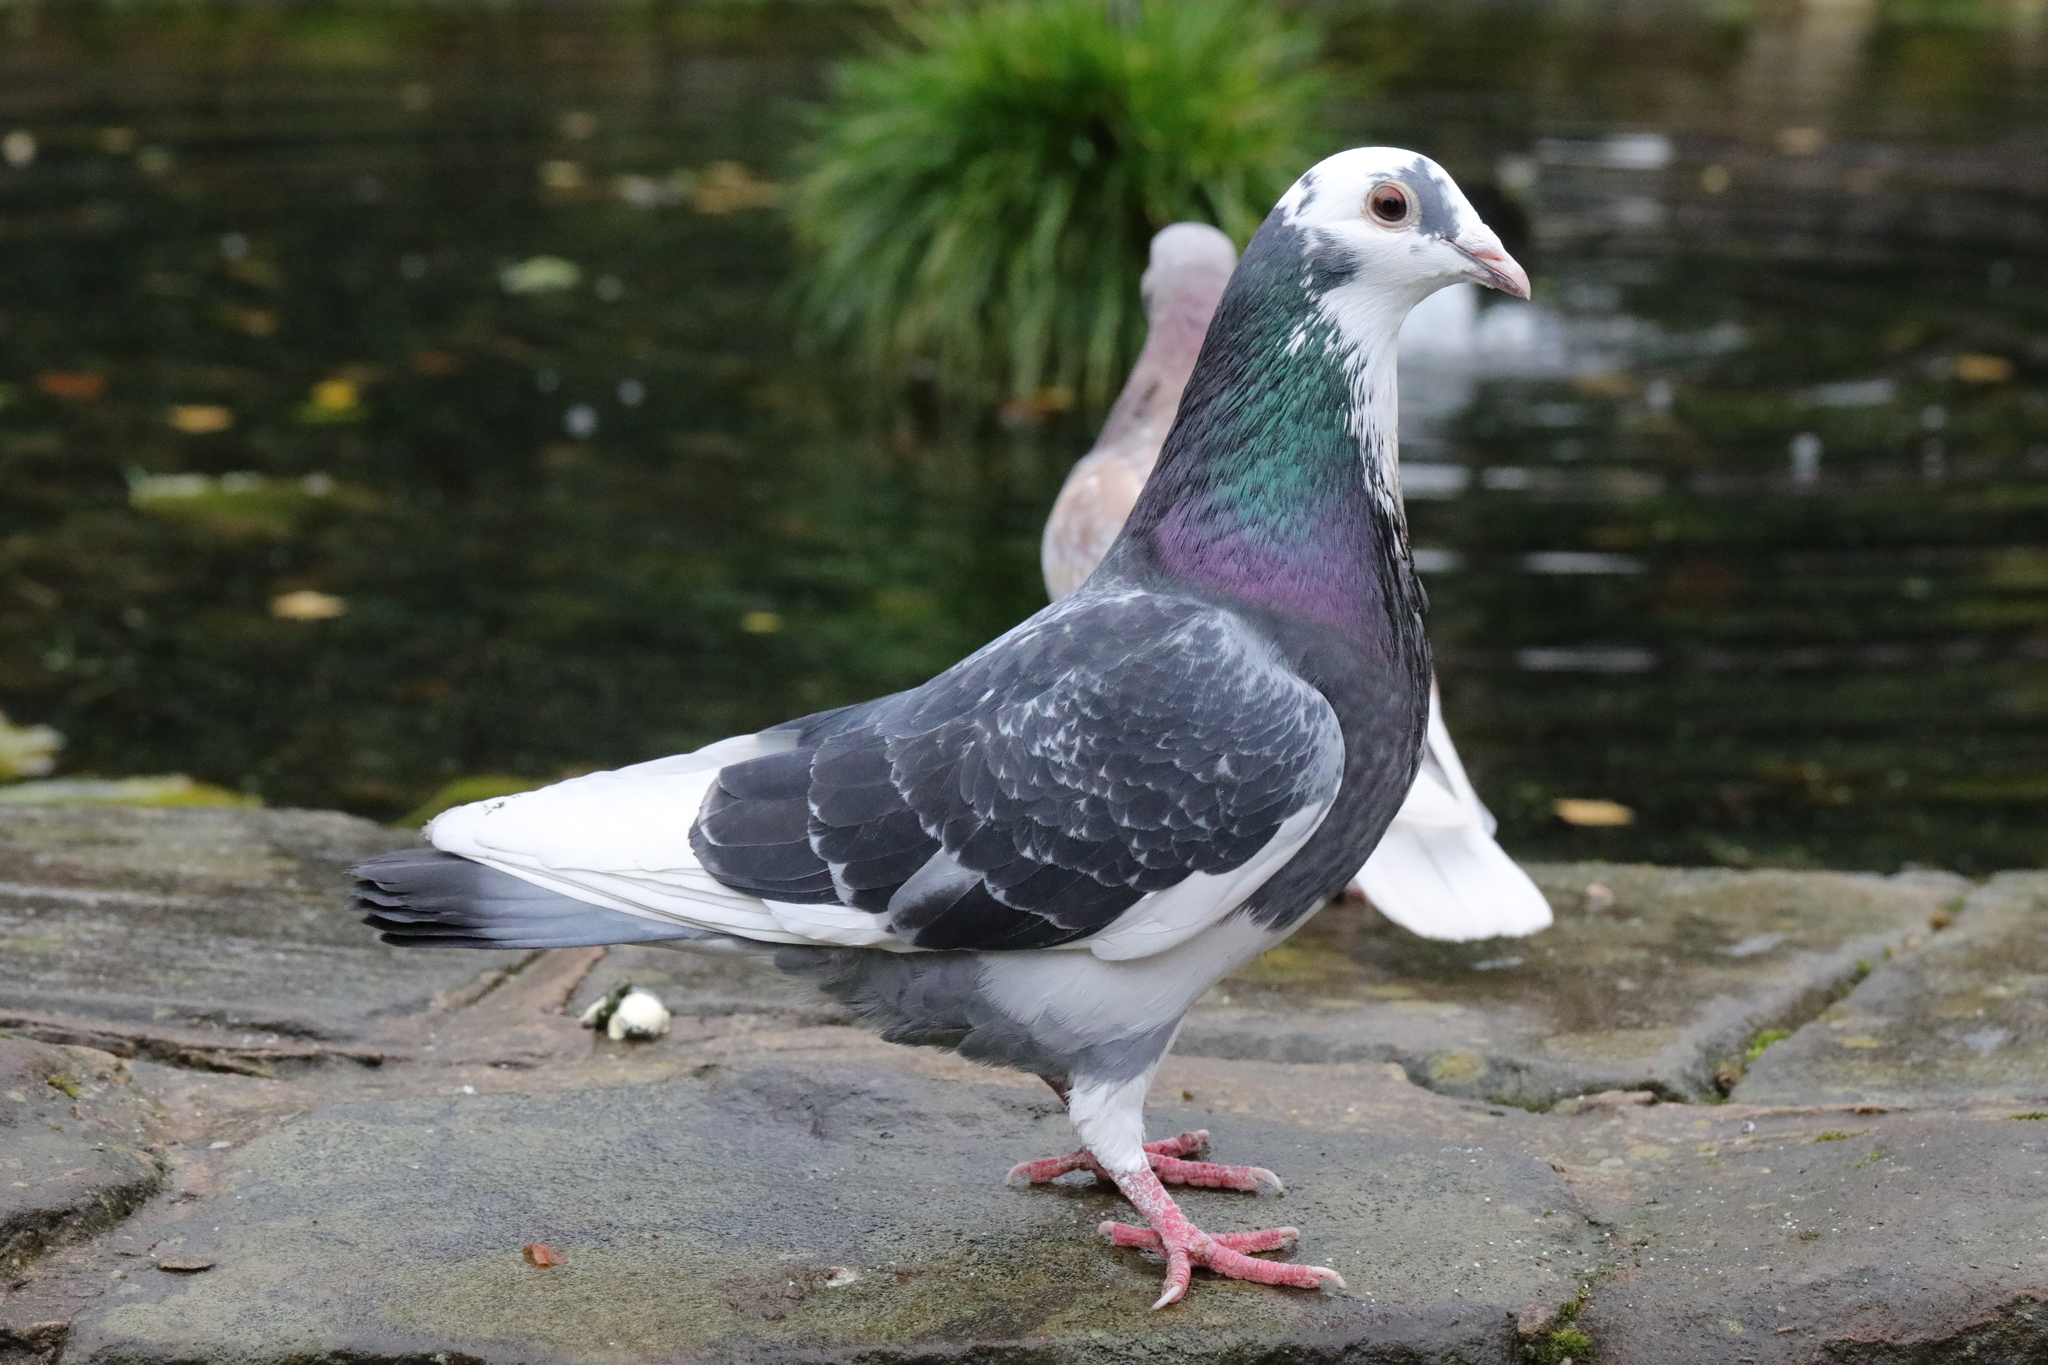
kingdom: Animalia
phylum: Chordata
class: Aves
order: Columbiformes
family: Columbidae
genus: Columba
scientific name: Columba livia
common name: Rock pigeon
